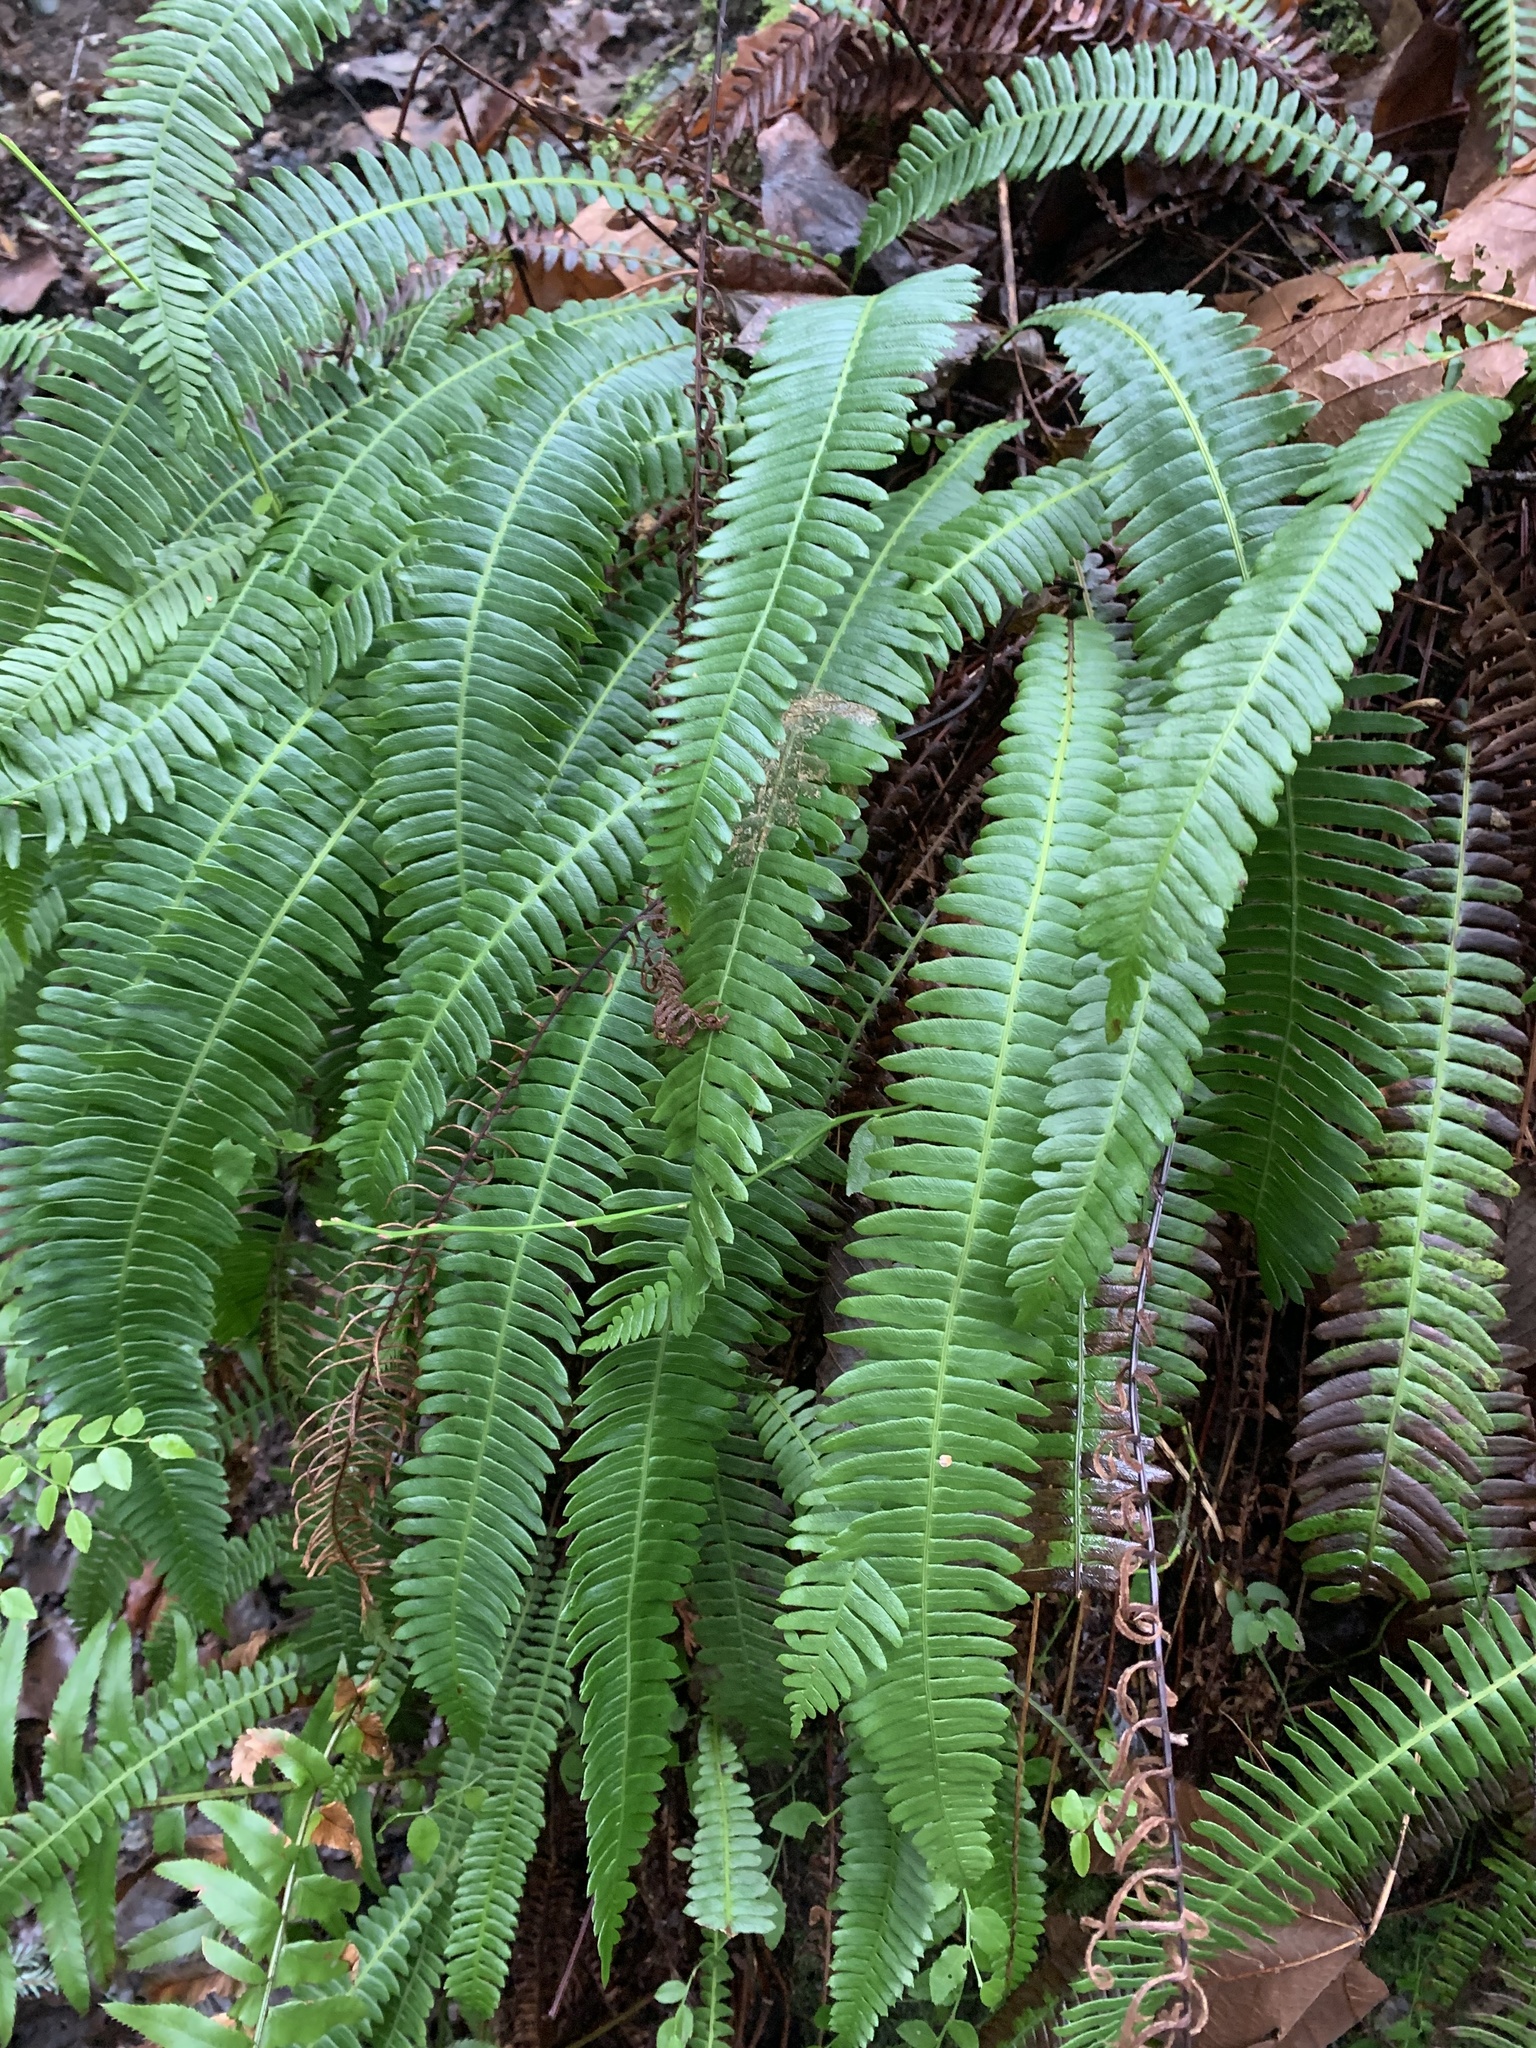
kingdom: Plantae
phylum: Tracheophyta
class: Polypodiopsida
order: Polypodiales
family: Blechnaceae
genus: Struthiopteris
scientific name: Struthiopteris spicant
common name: Deer fern
